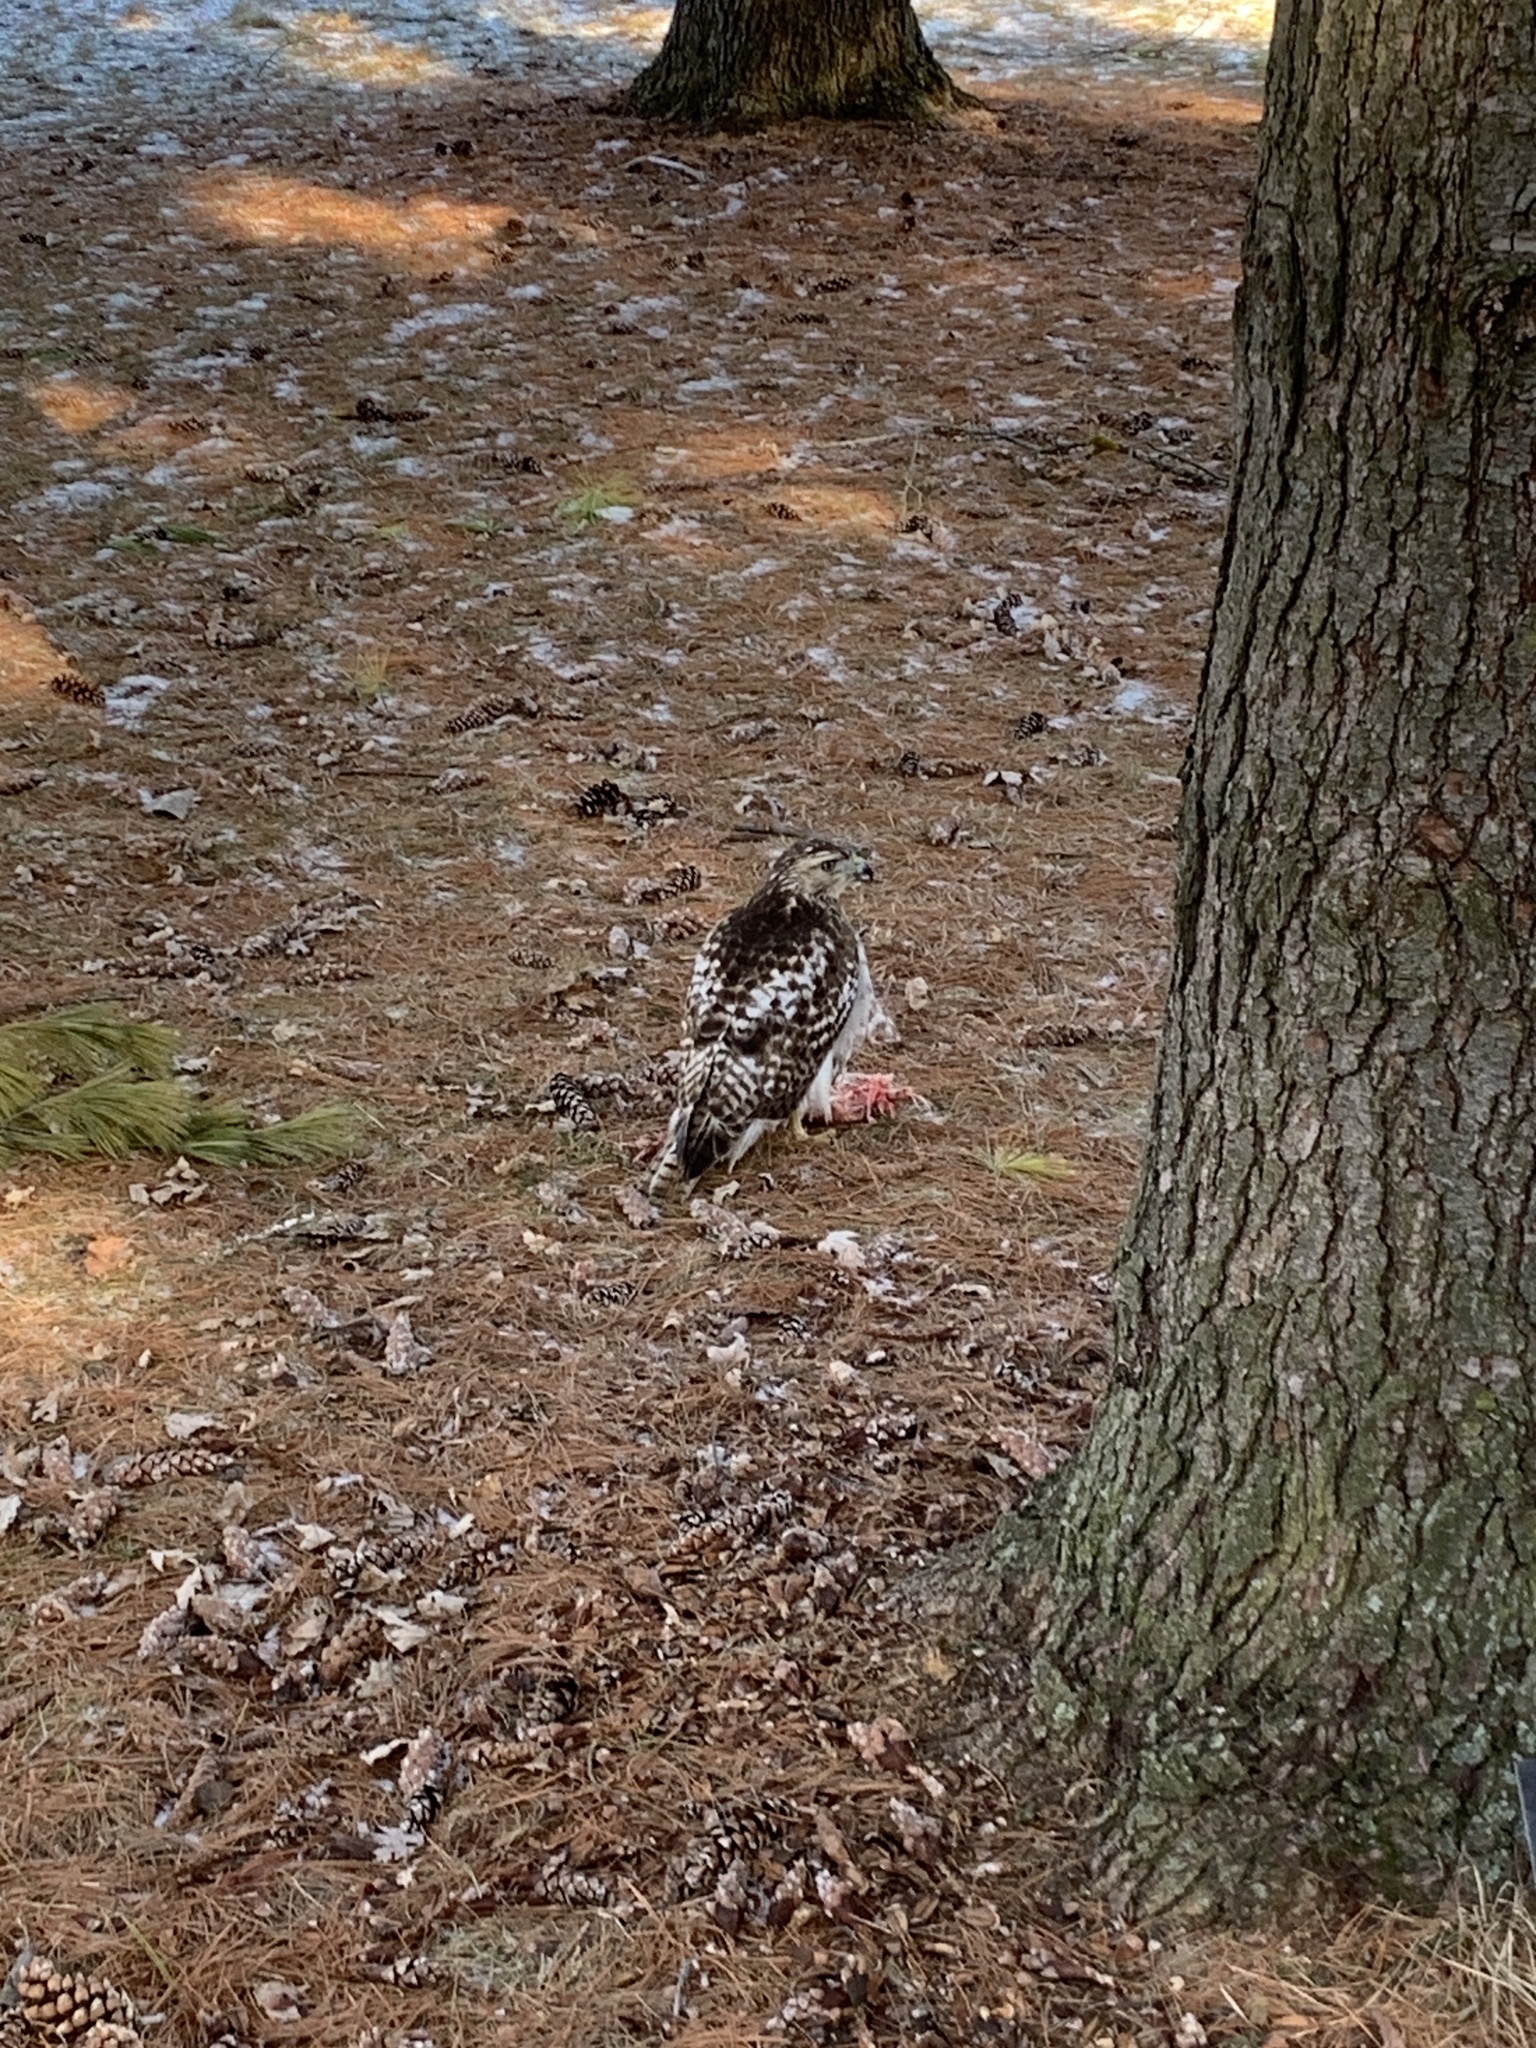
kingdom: Animalia
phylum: Chordata
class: Aves
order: Accipitriformes
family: Accipitridae
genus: Buteo
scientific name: Buteo jamaicensis
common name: Red-tailed hawk
